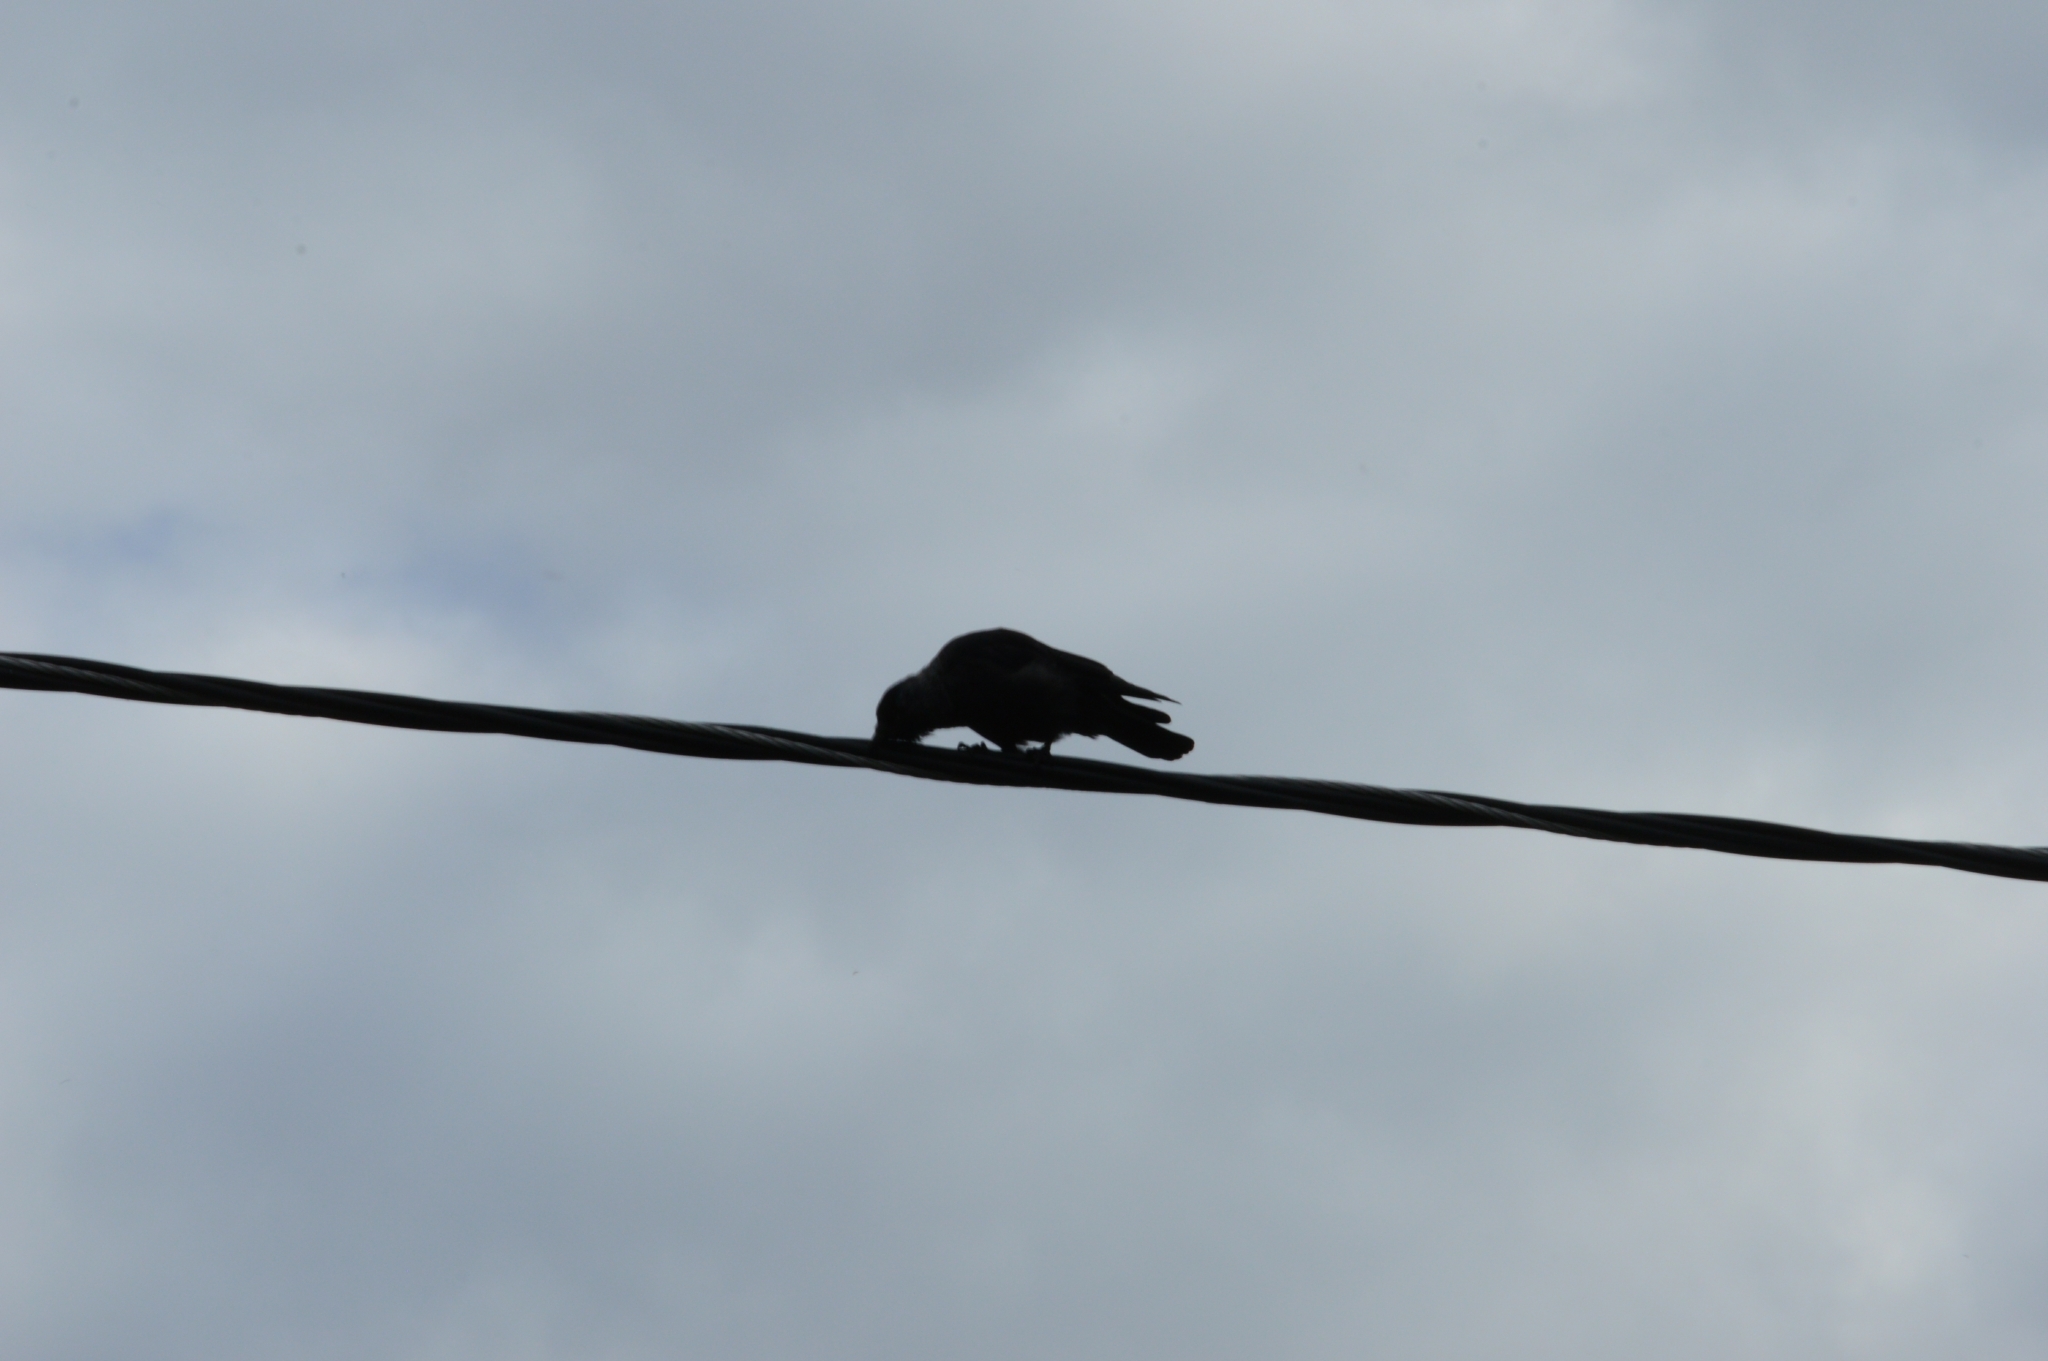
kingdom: Animalia
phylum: Chordata
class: Aves
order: Passeriformes
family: Corvidae
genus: Coloeus
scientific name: Coloeus monedula
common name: Western jackdaw
